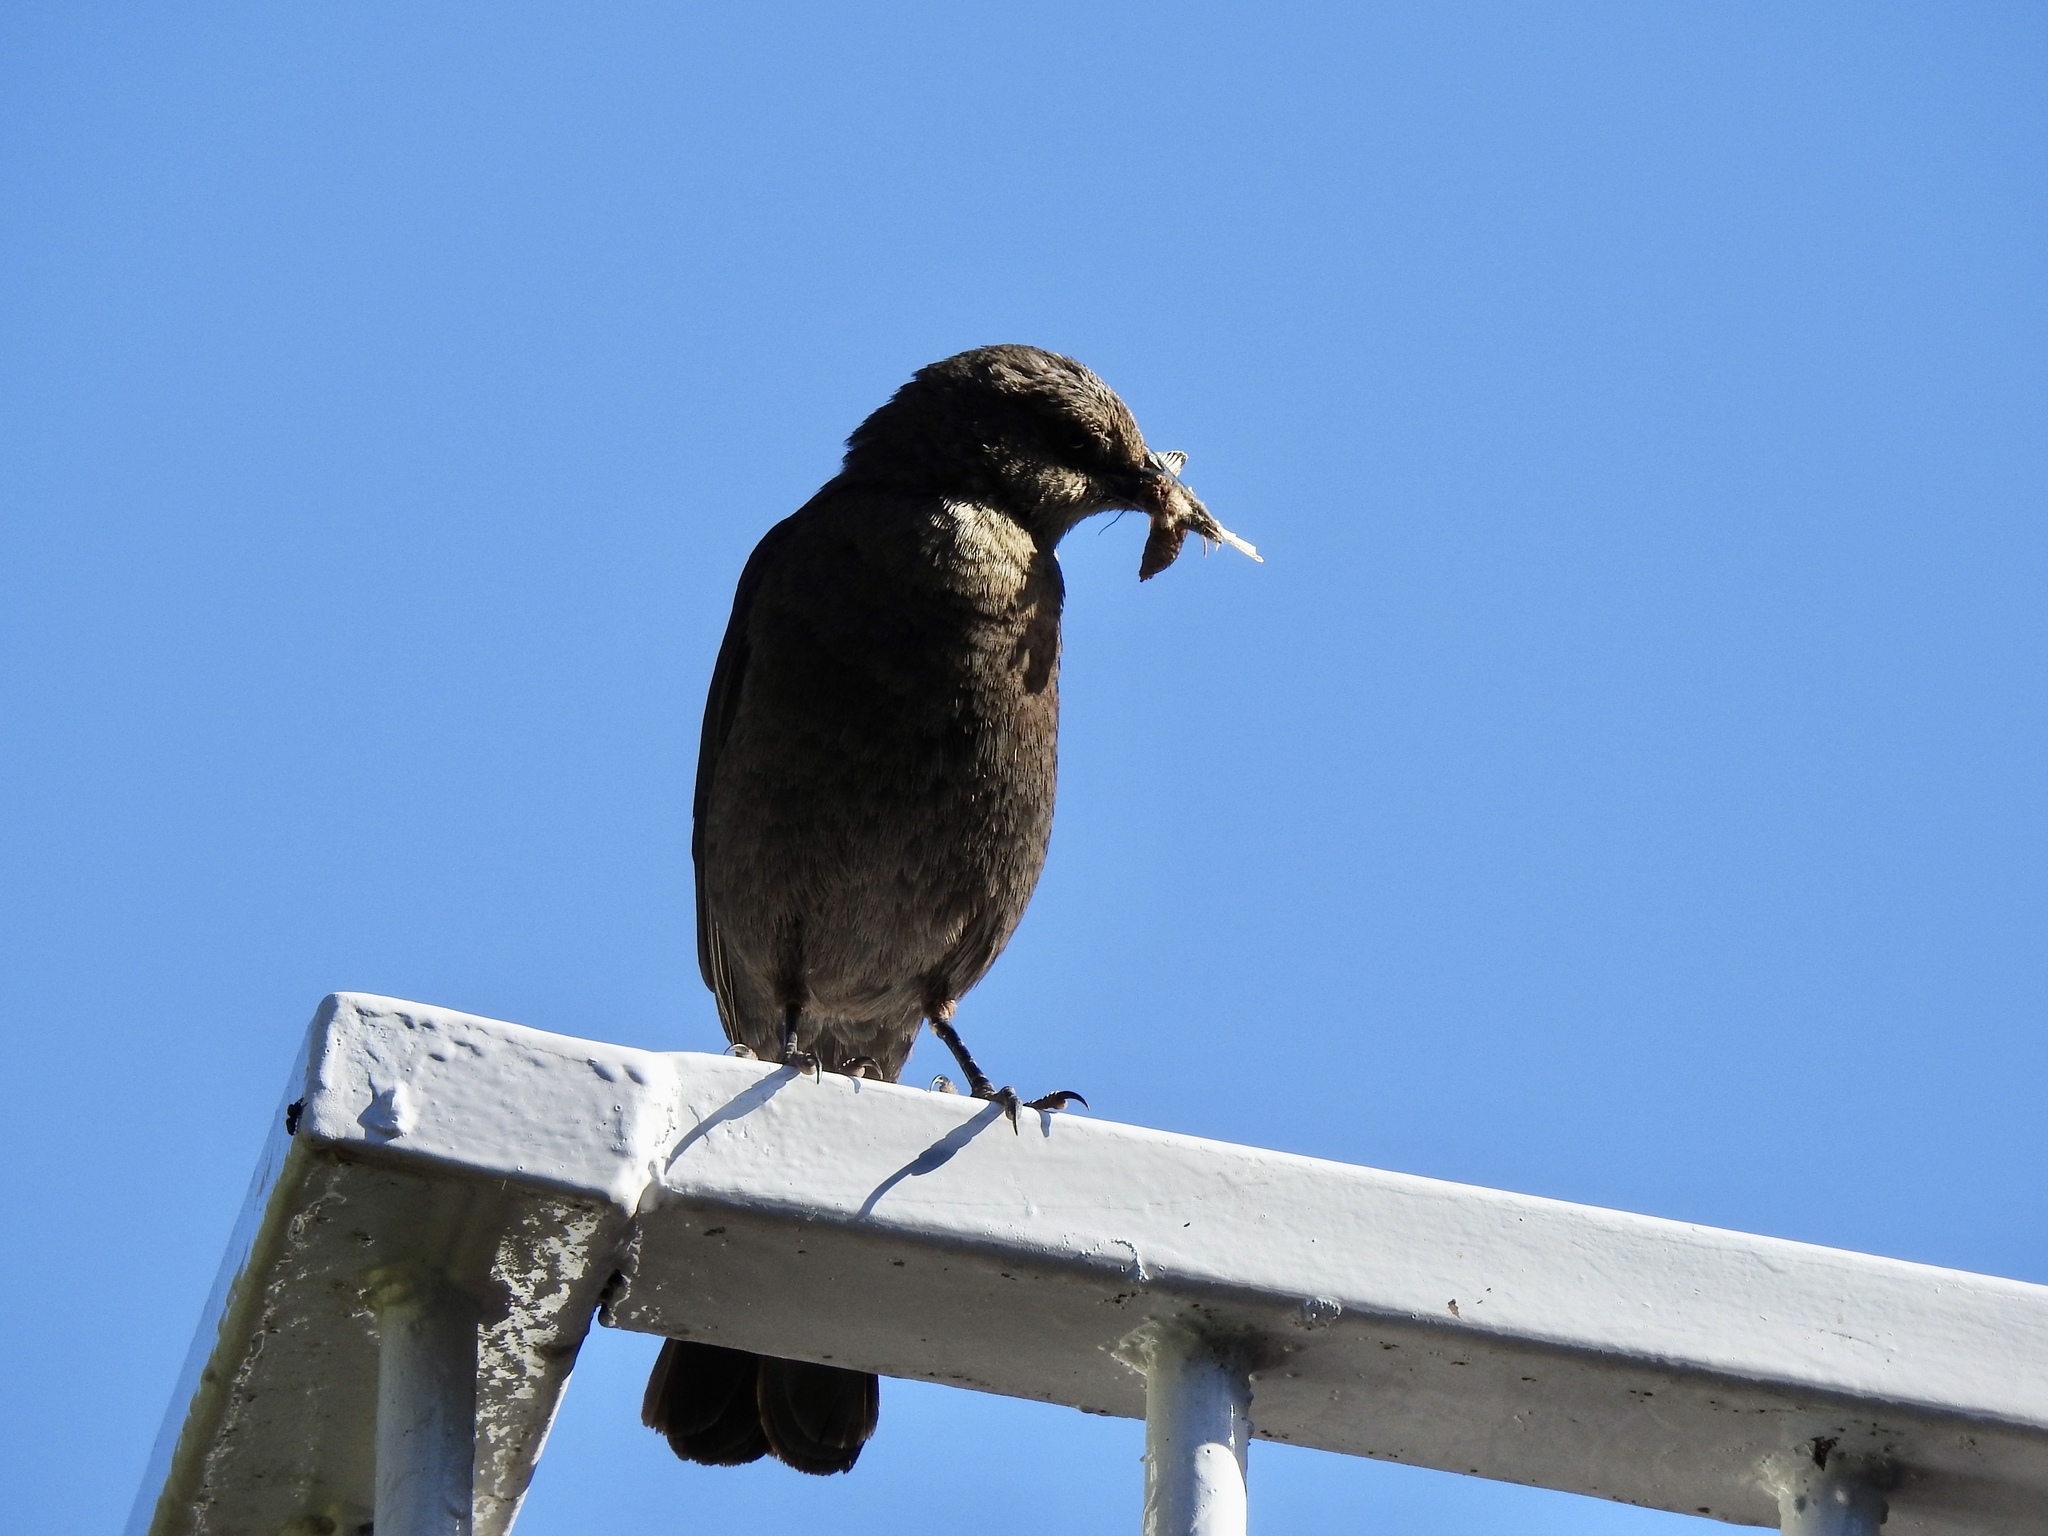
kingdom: Animalia
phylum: Chordata
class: Aves
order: Passeriformes
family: Icteridae
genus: Euphagus
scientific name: Euphagus cyanocephalus
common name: Brewer's blackbird
